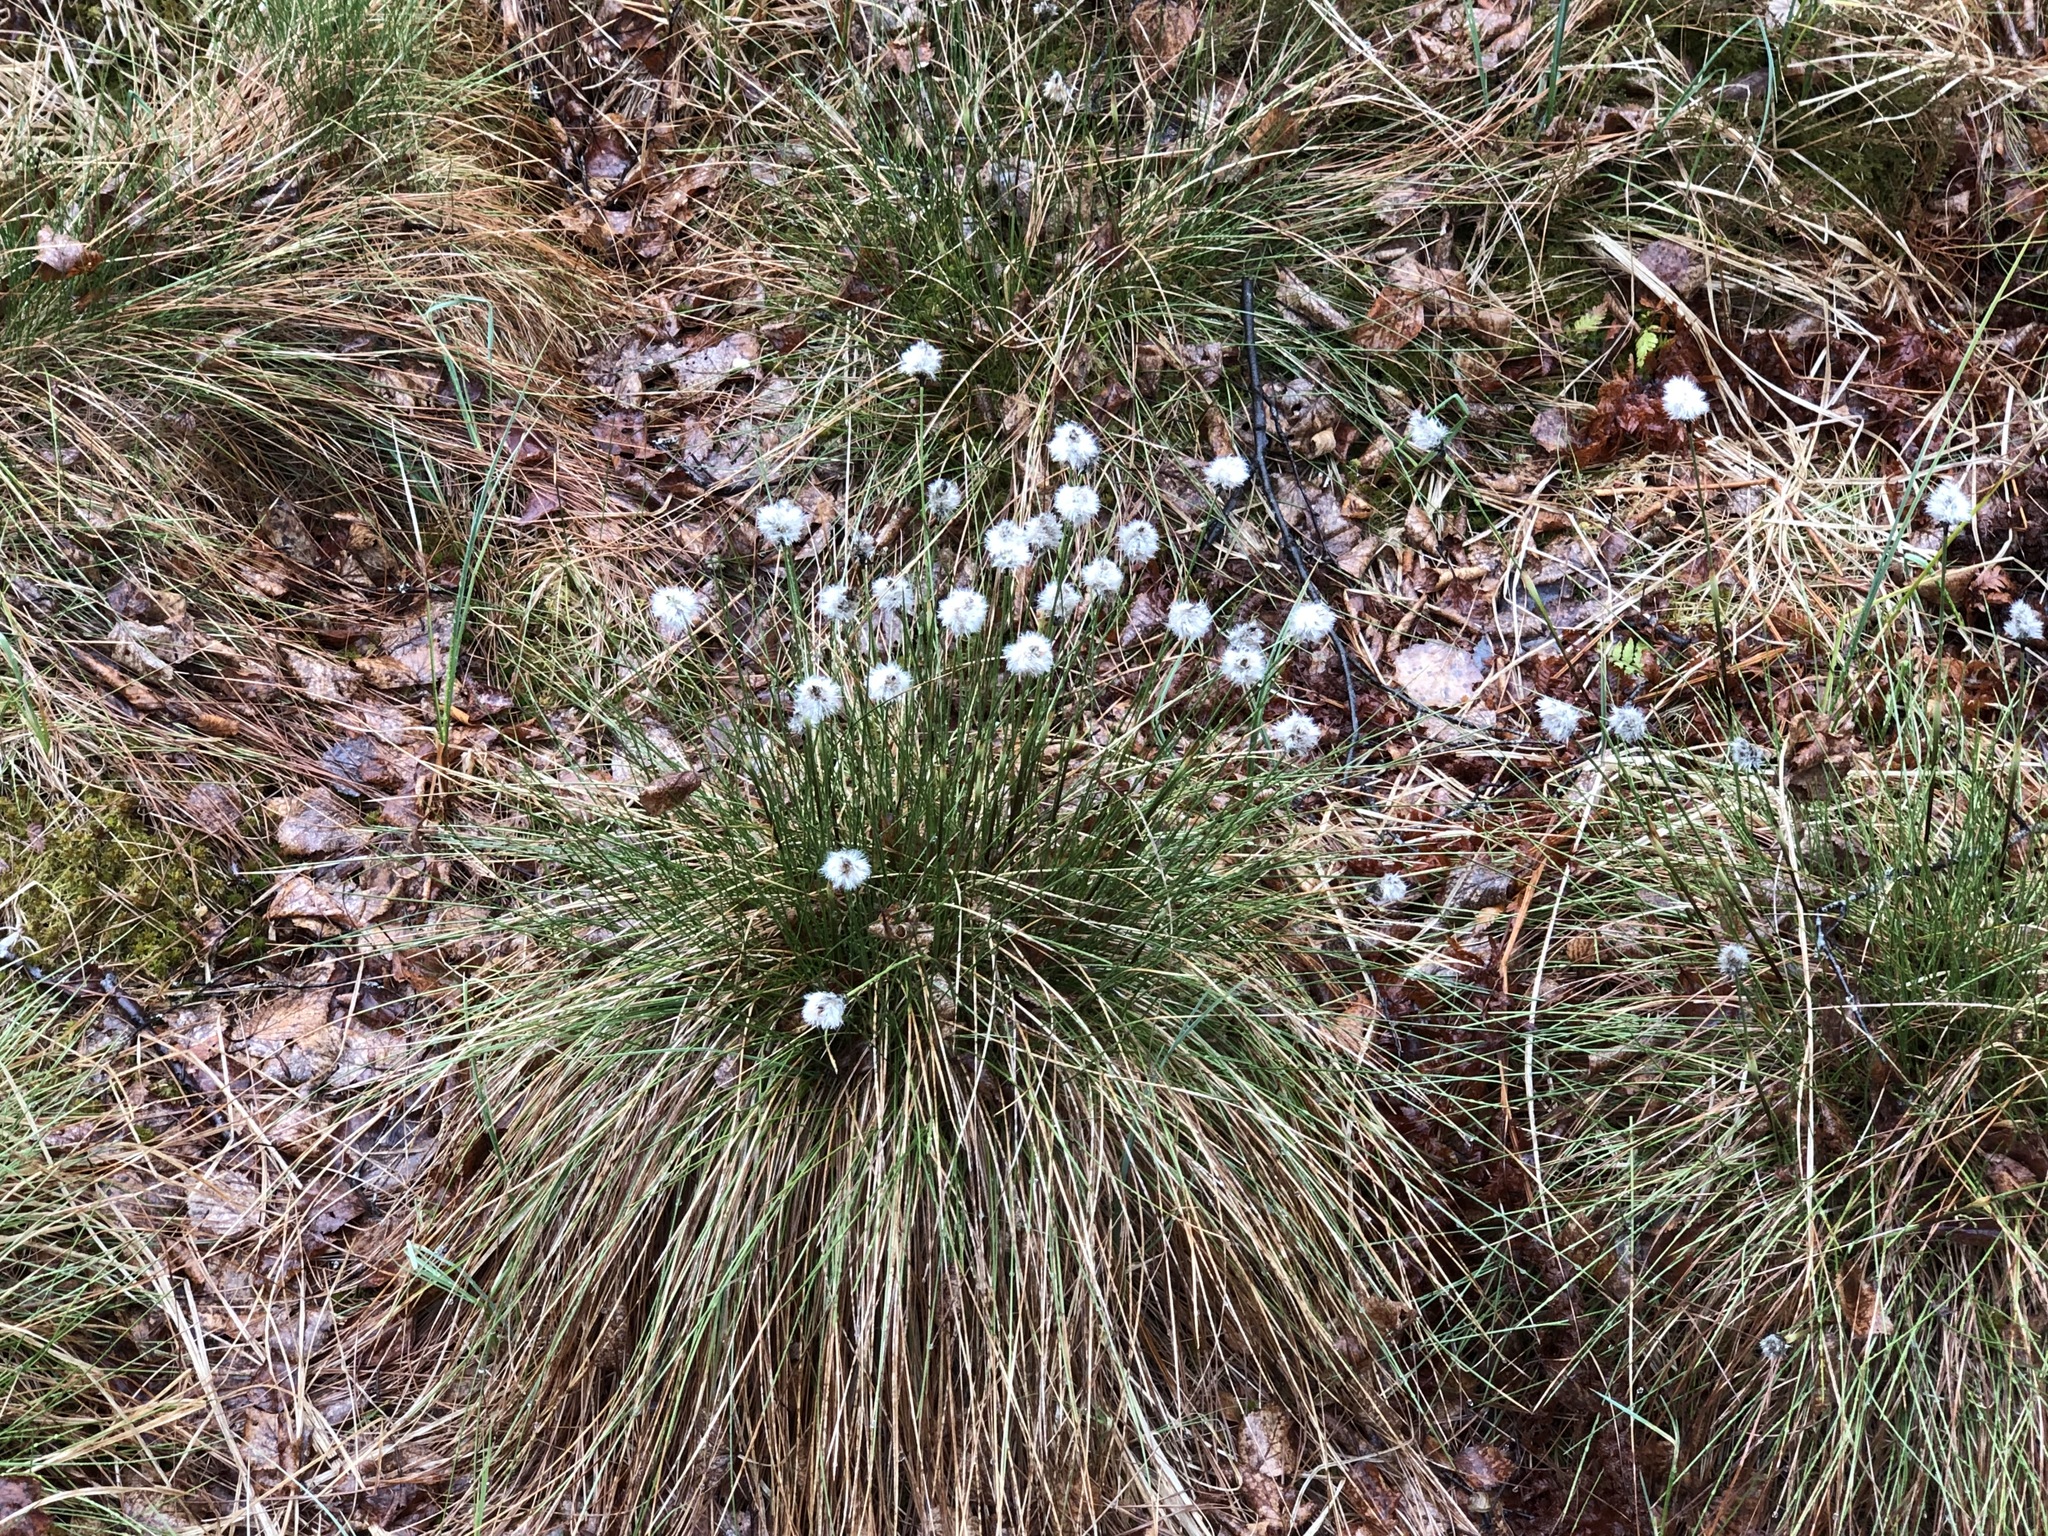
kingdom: Plantae
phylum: Tracheophyta
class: Liliopsida
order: Poales
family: Cyperaceae
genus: Eriophorum
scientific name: Eriophorum vaginatum
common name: Hare's-tail cottongrass
